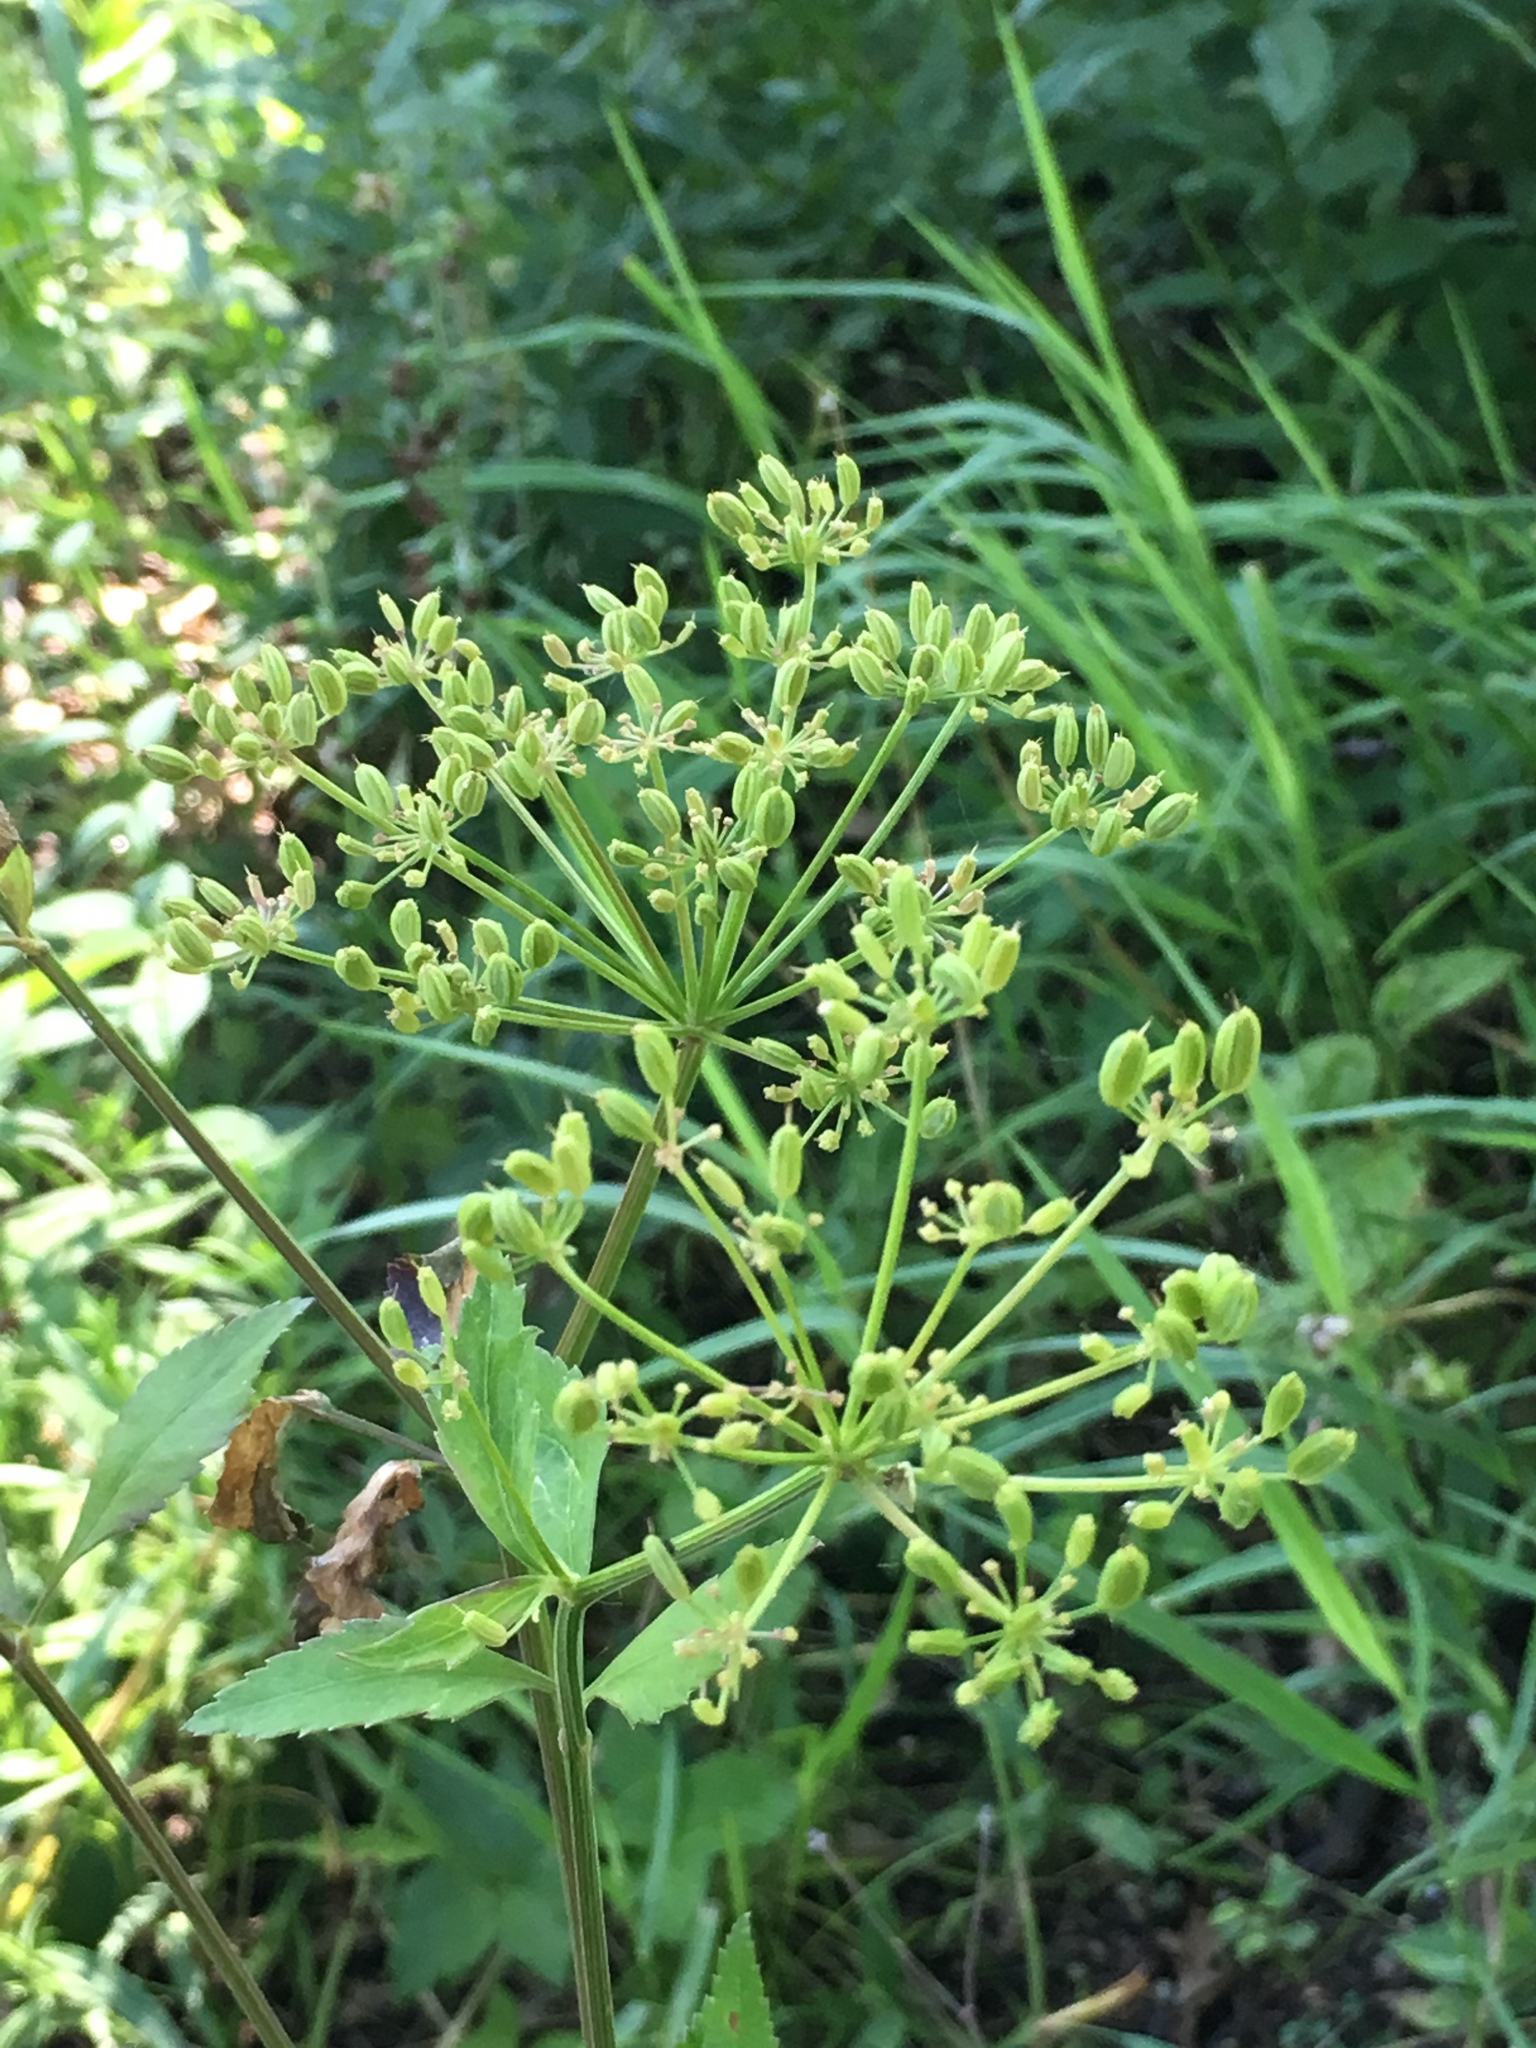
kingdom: Plantae
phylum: Tracheophyta
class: Magnoliopsida
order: Apiales
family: Apiaceae
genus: Zizia
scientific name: Zizia aurea
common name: Golden alexanders
